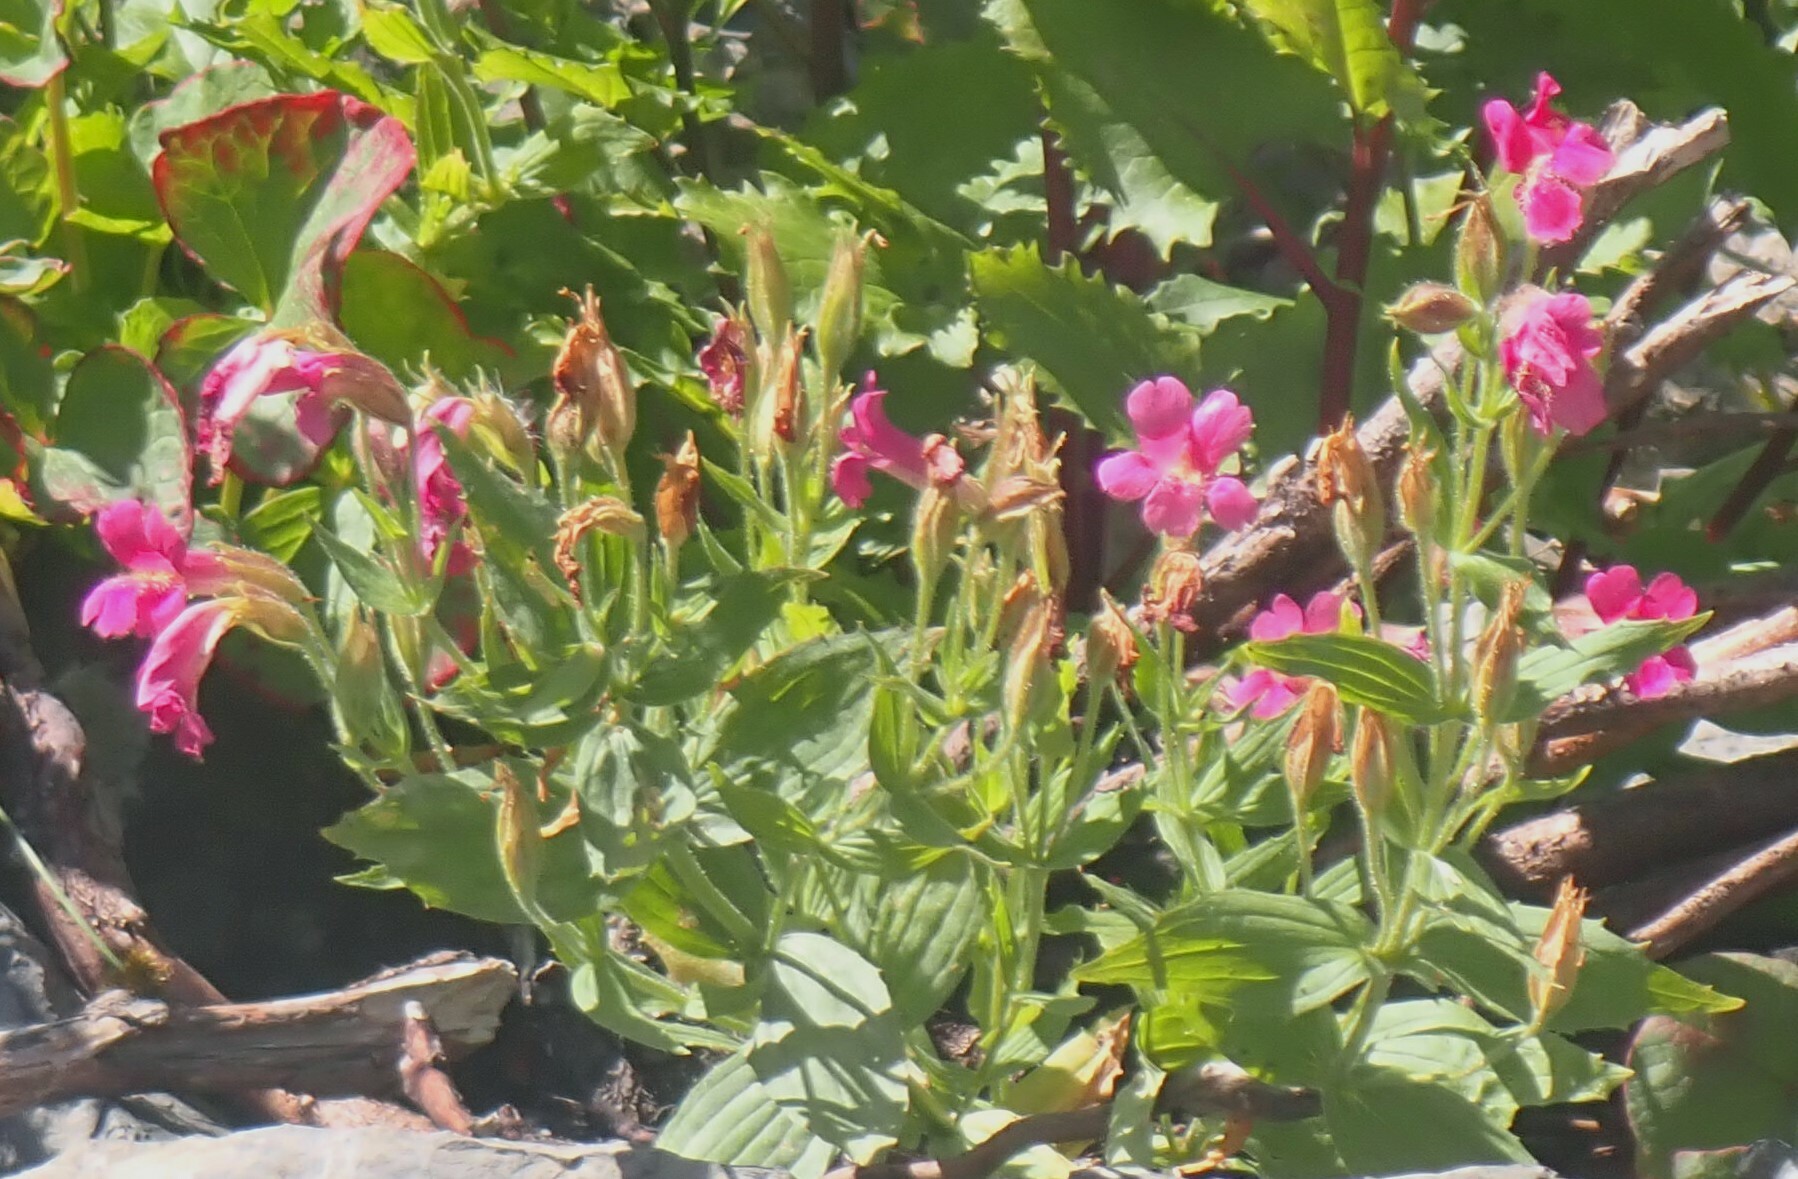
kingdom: Plantae
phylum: Tracheophyta
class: Magnoliopsida
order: Lamiales
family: Phrymaceae
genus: Erythranthe
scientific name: Erythranthe lewisii
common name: Lewis's monkey-flower
